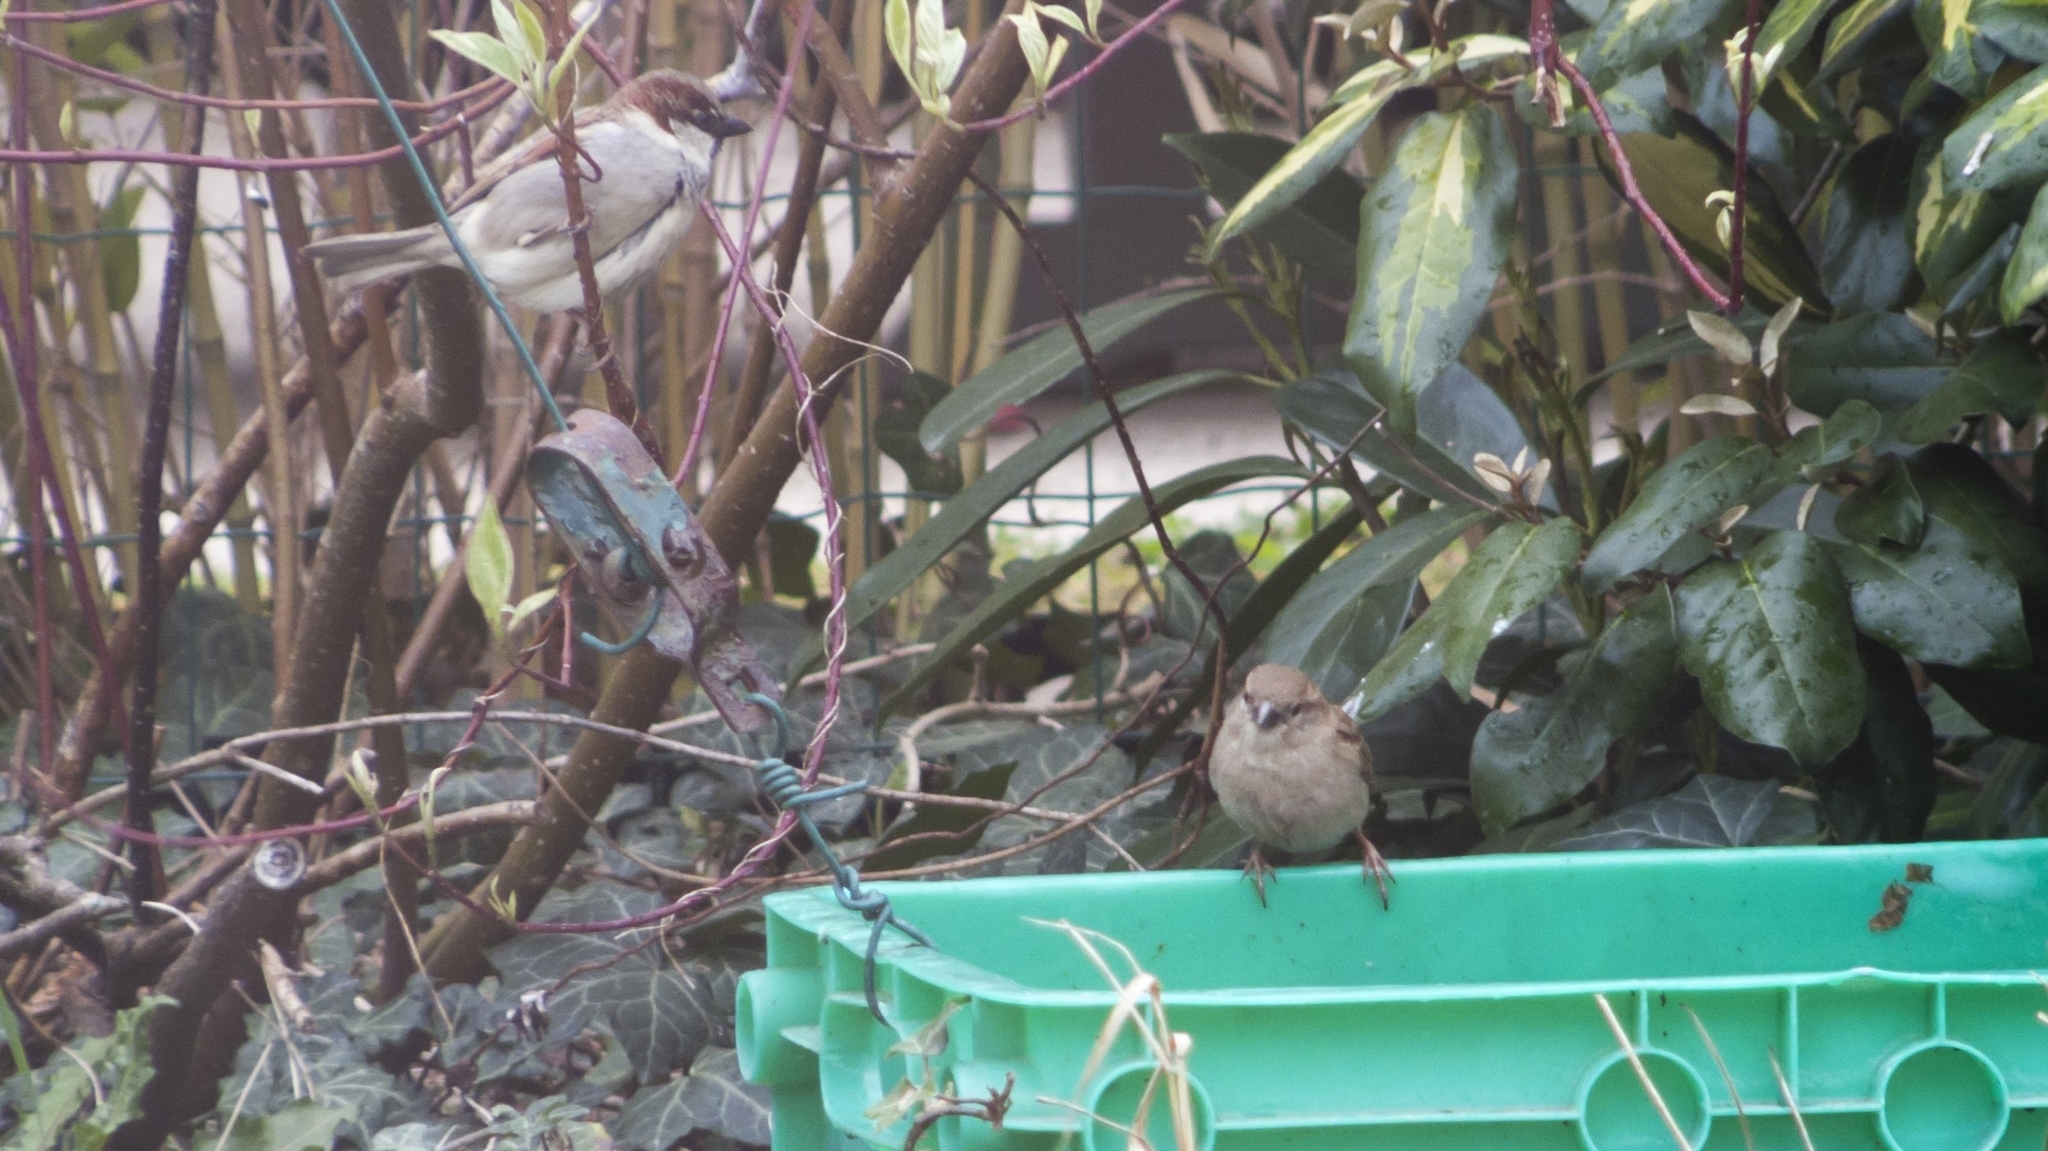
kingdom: Animalia
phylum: Chordata
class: Aves
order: Passeriformes
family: Passeridae
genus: Passer
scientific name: Passer domesticus
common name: House sparrow
